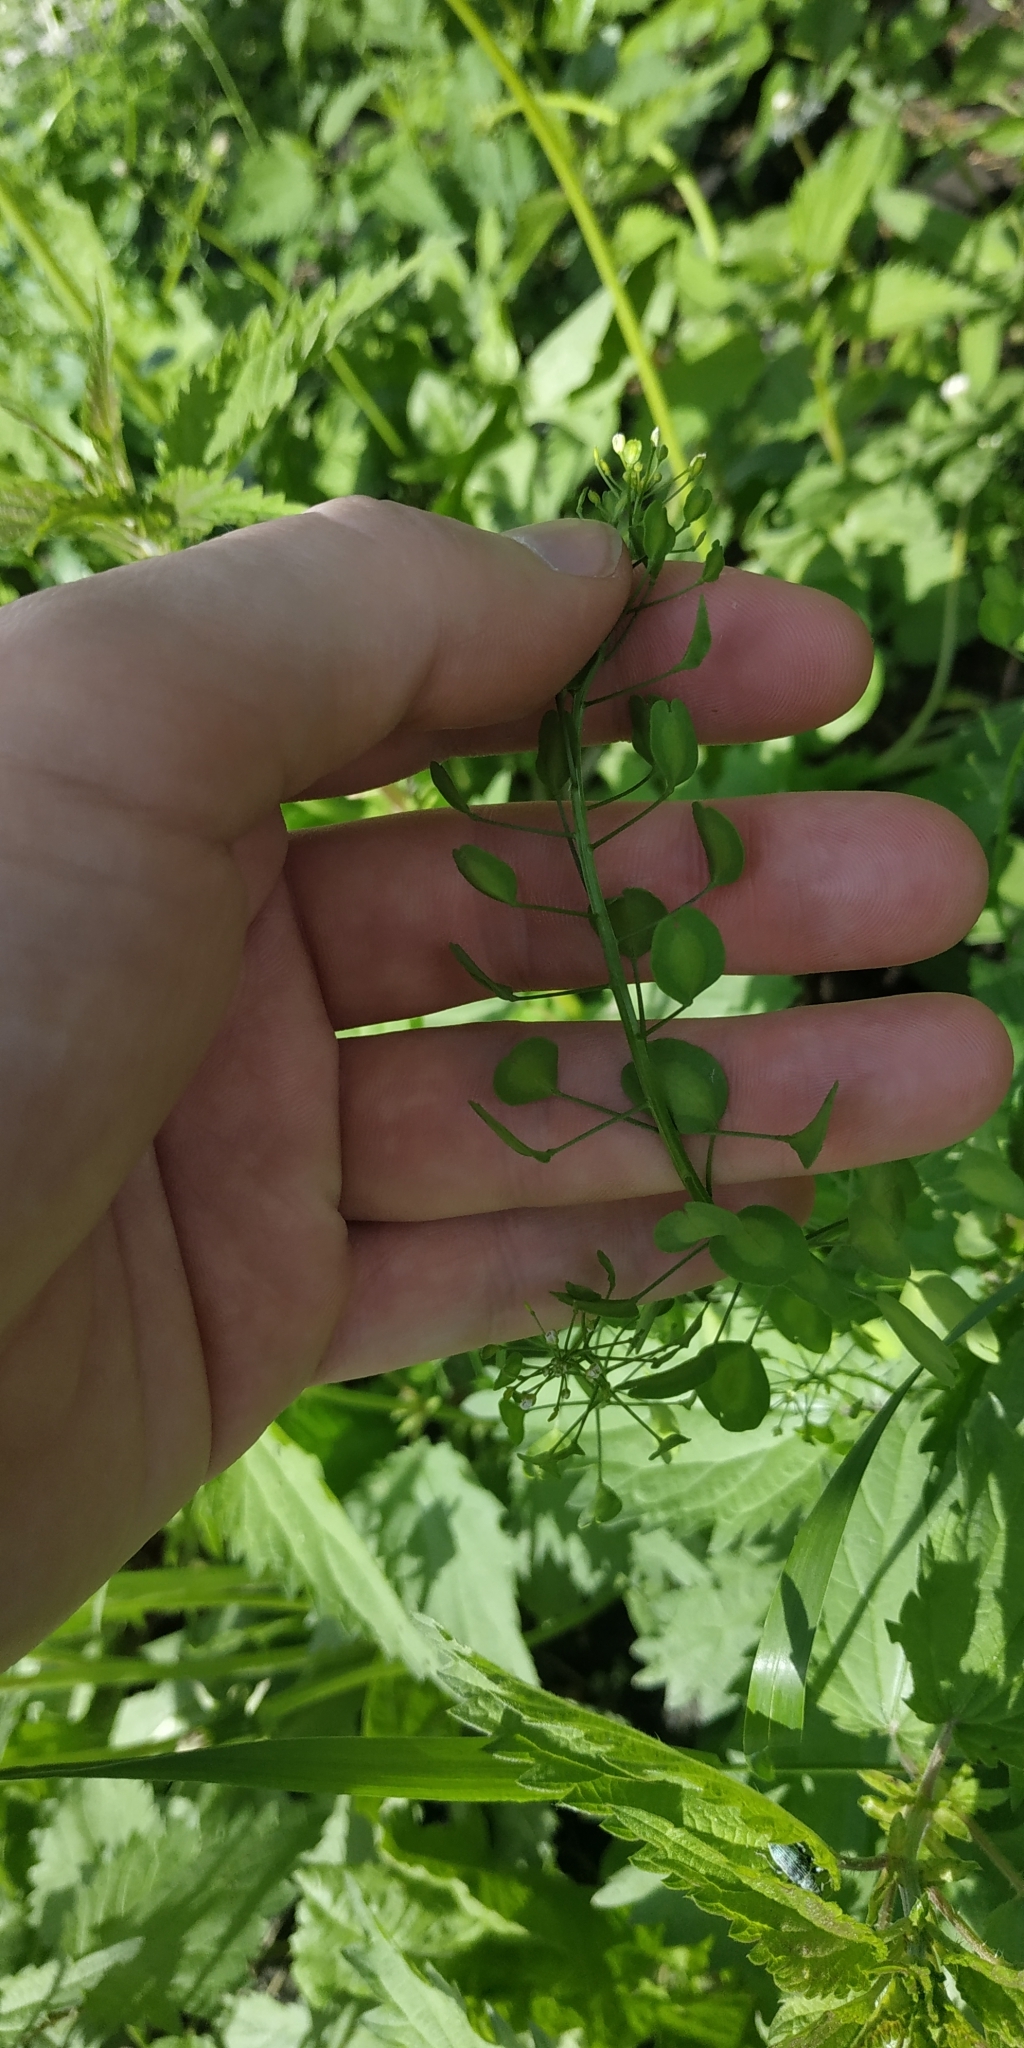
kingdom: Plantae
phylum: Tracheophyta
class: Magnoliopsida
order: Brassicales
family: Brassicaceae
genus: Thlaspi
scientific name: Thlaspi arvense
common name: Field pennycress
